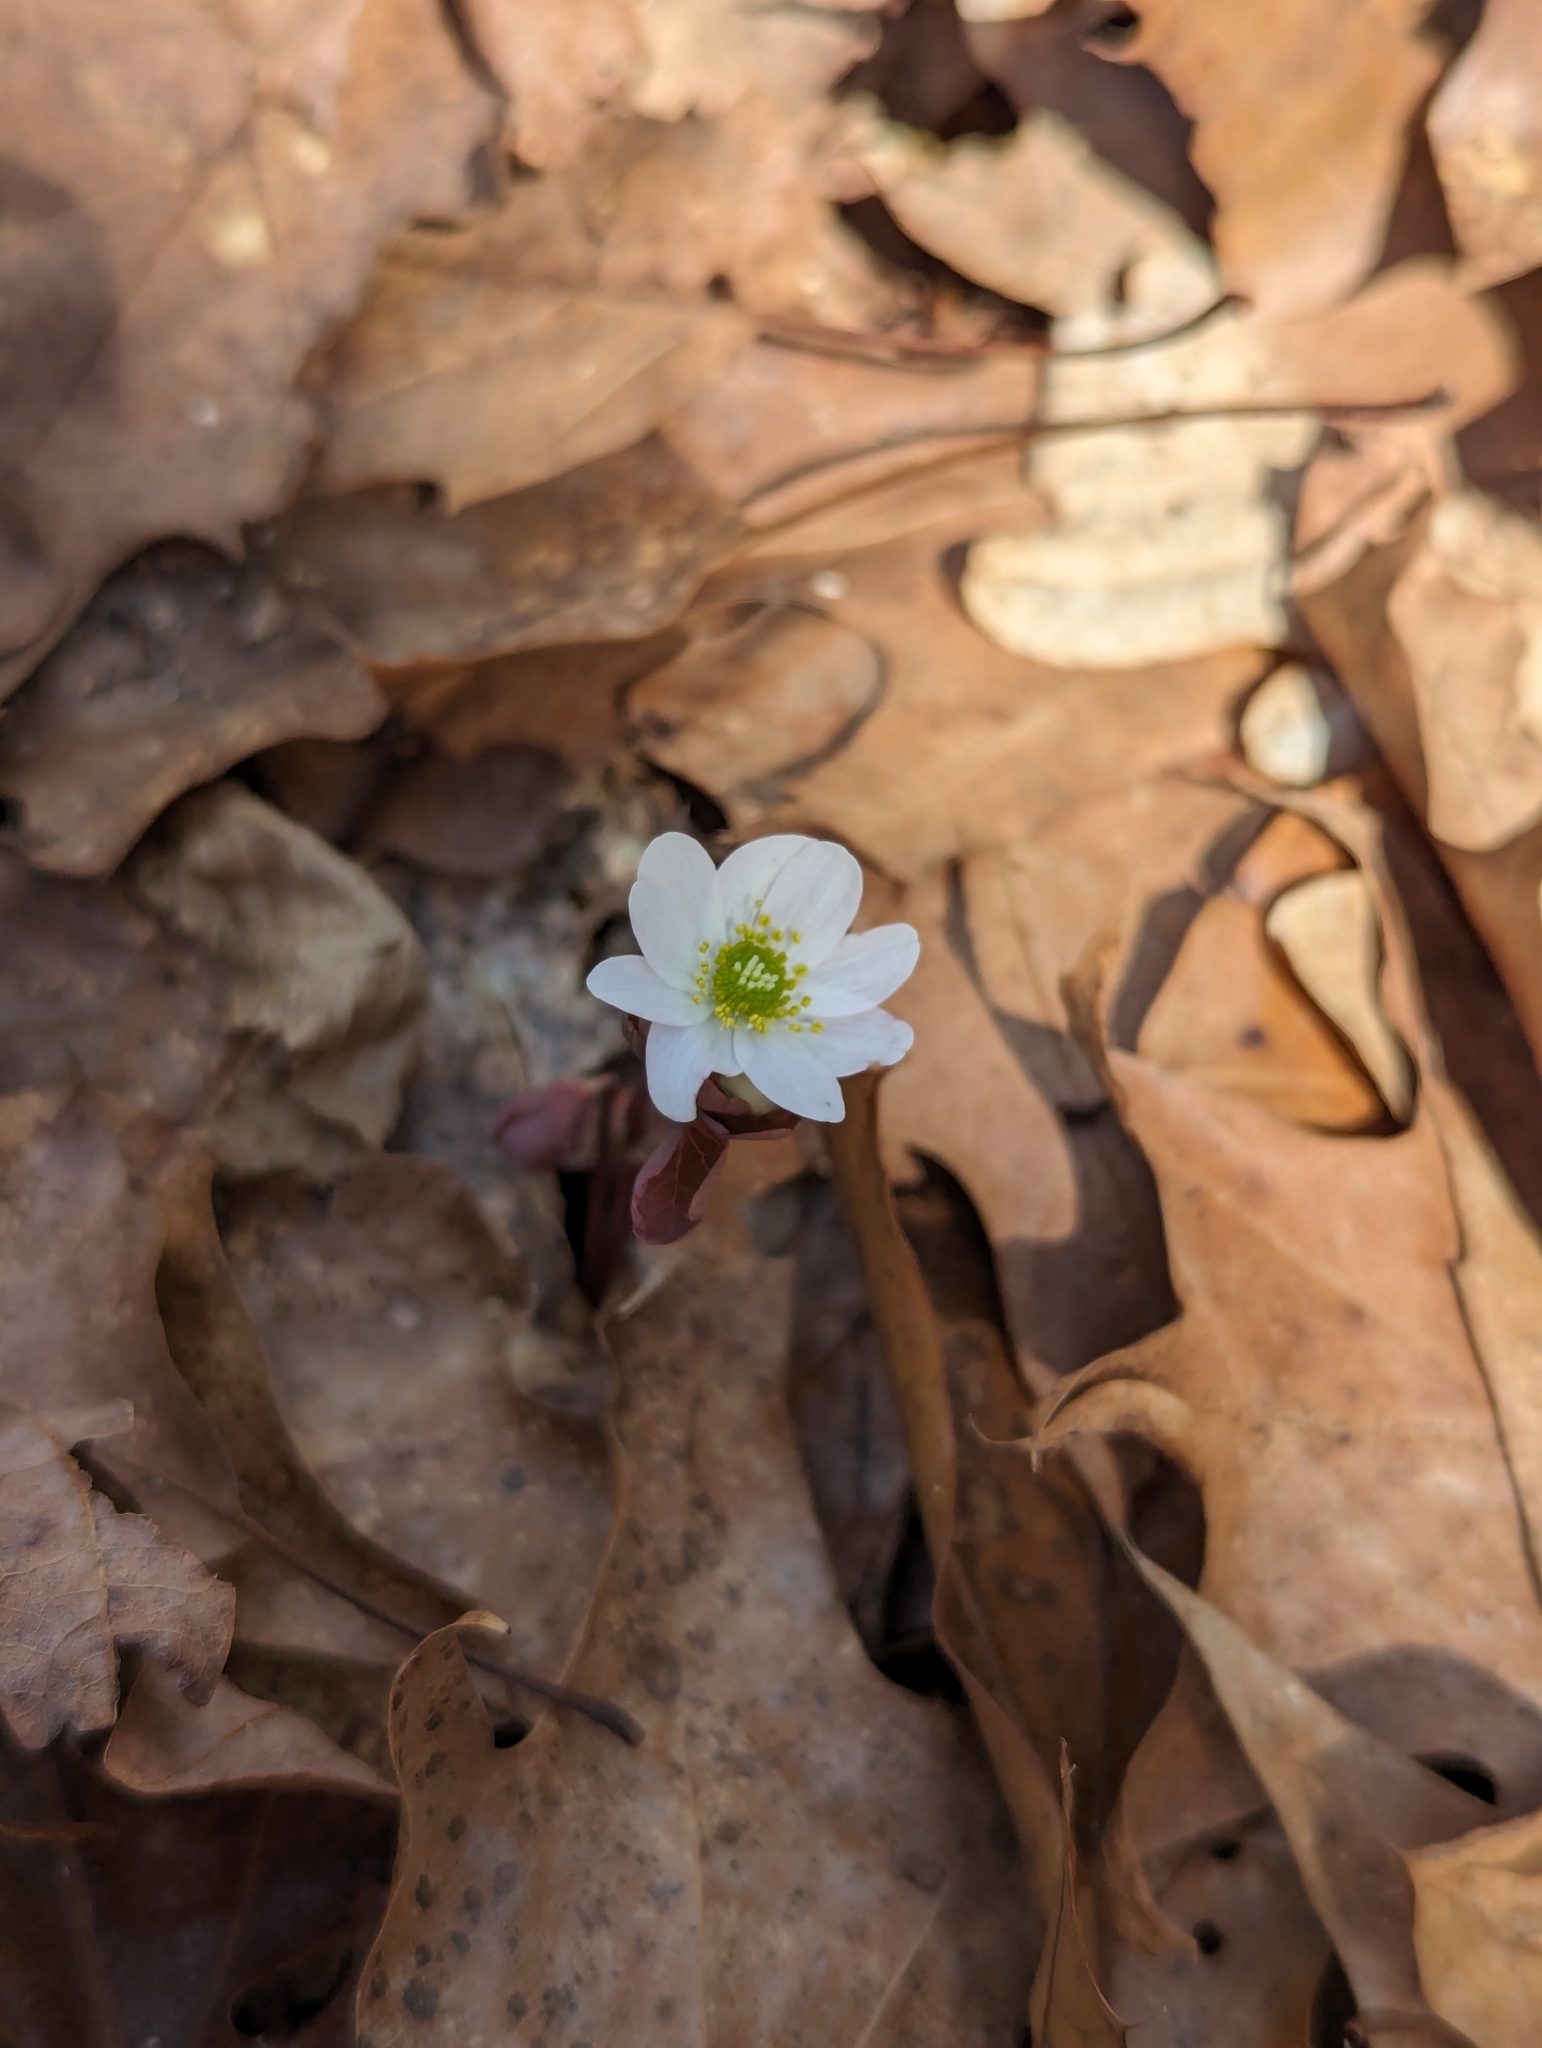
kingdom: Plantae
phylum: Tracheophyta
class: Magnoliopsida
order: Ranunculales
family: Ranunculaceae
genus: Thalictrum
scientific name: Thalictrum thalictroides
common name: Rue-anemone
